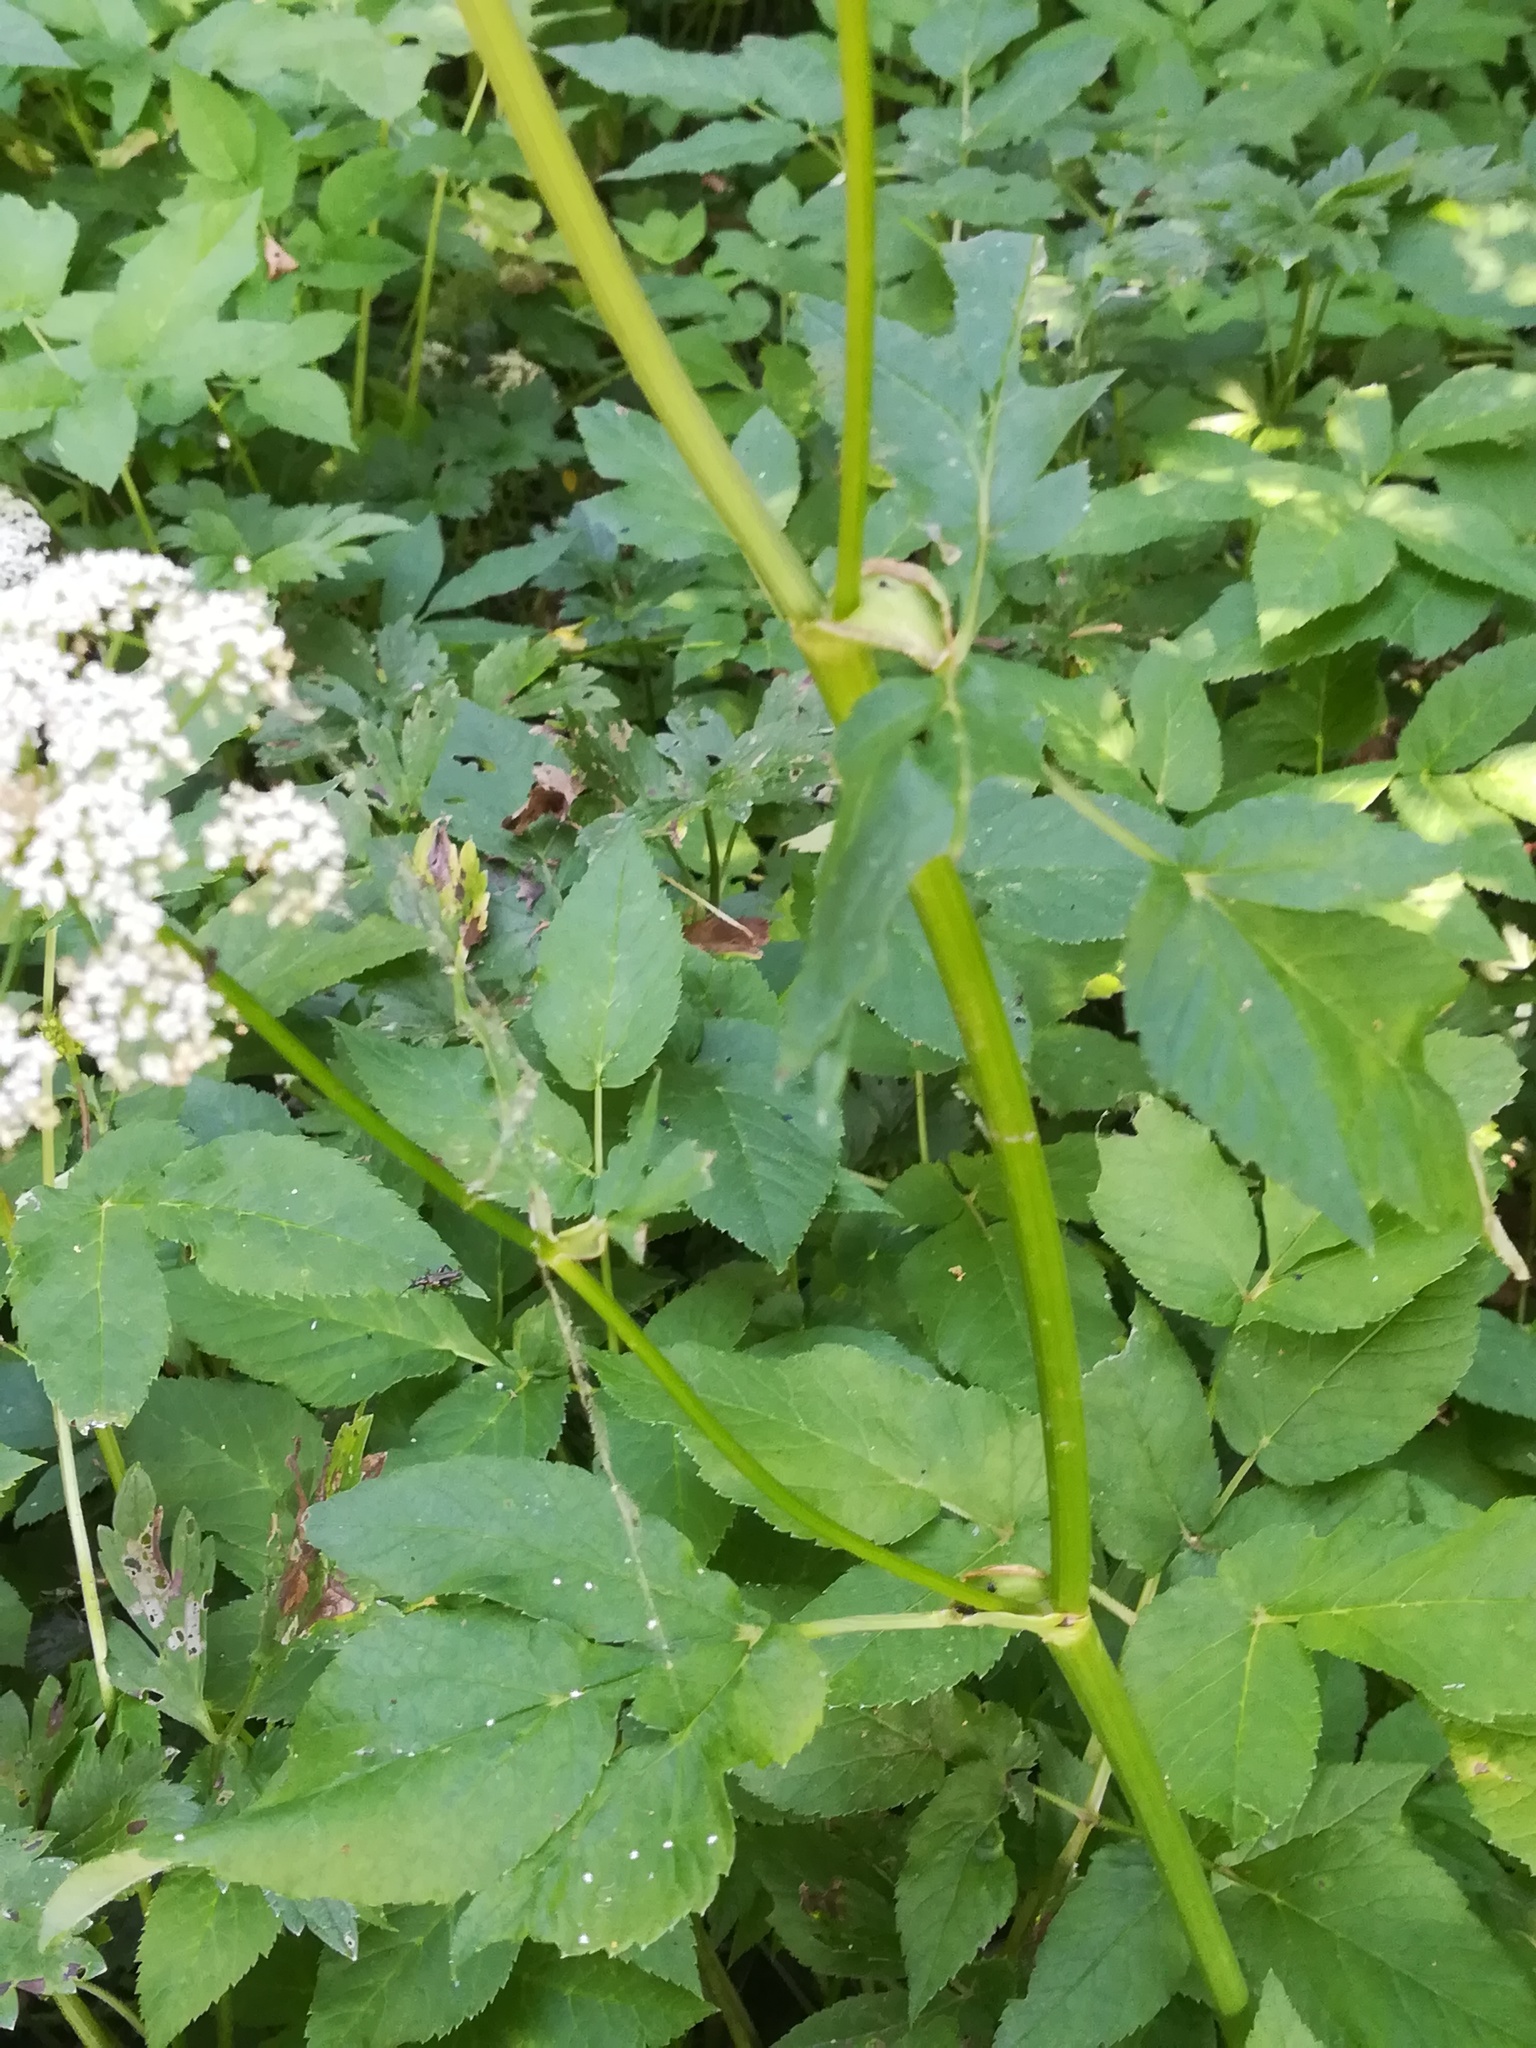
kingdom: Plantae
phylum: Tracheophyta
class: Magnoliopsida
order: Apiales
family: Apiaceae
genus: Aegopodium
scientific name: Aegopodium podagraria
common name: Ground-elder
